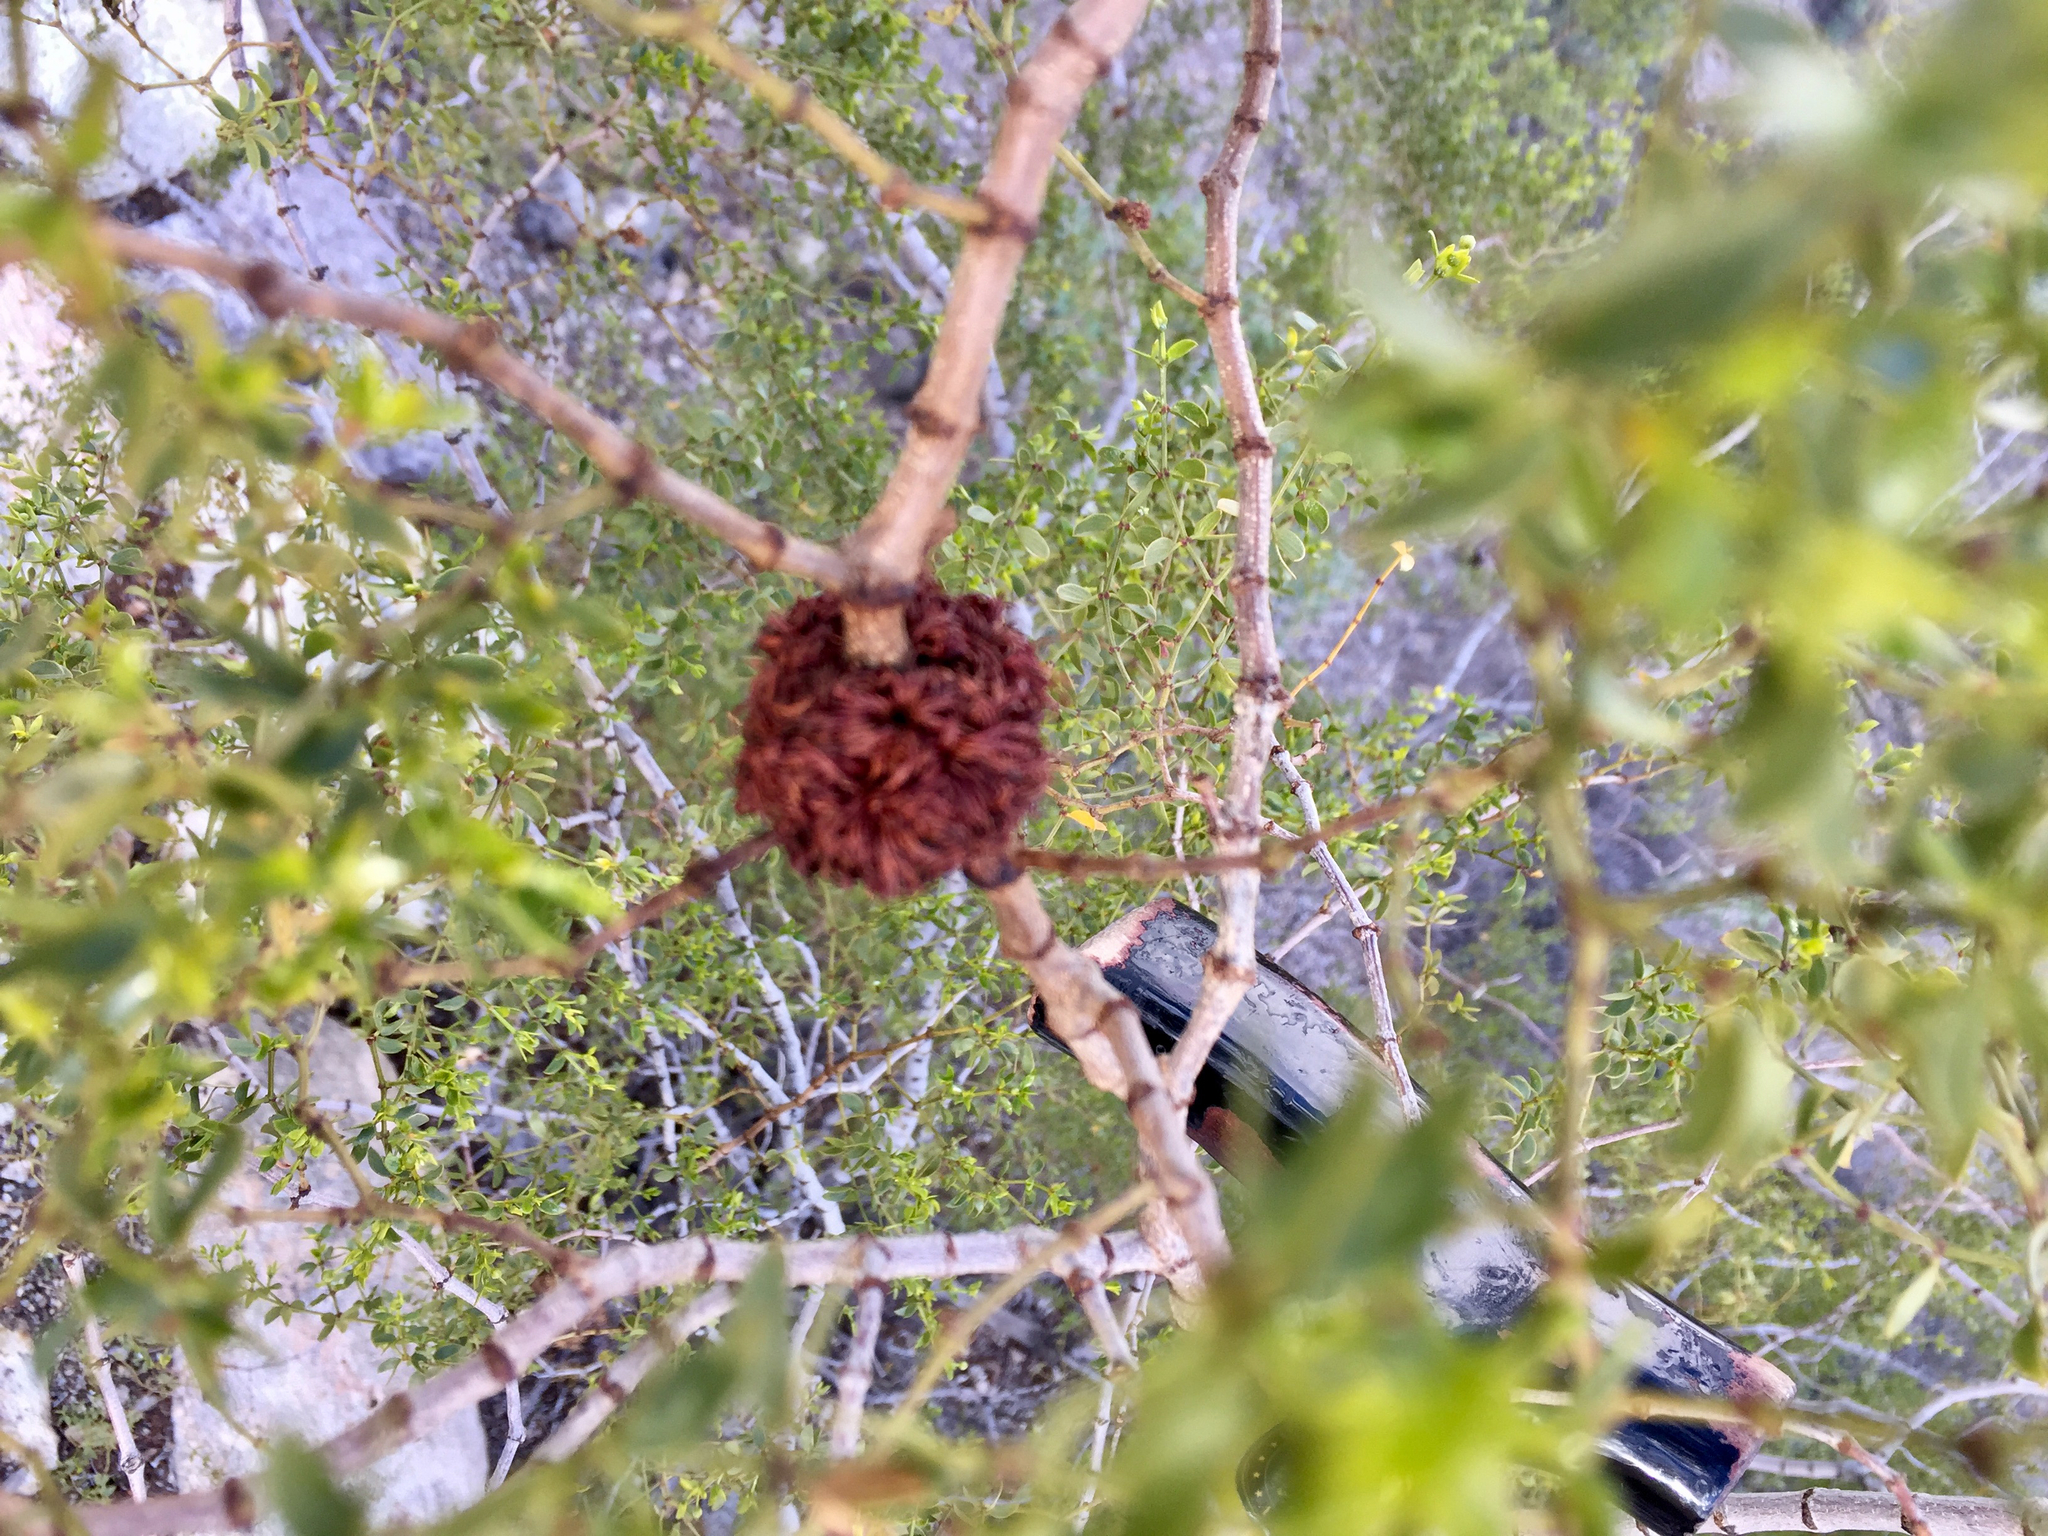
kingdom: Animalia
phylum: Arthropoda
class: Insecta
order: Diptera
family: Cecidomyiidae
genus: Asphondylia
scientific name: Asphondylia auripila
